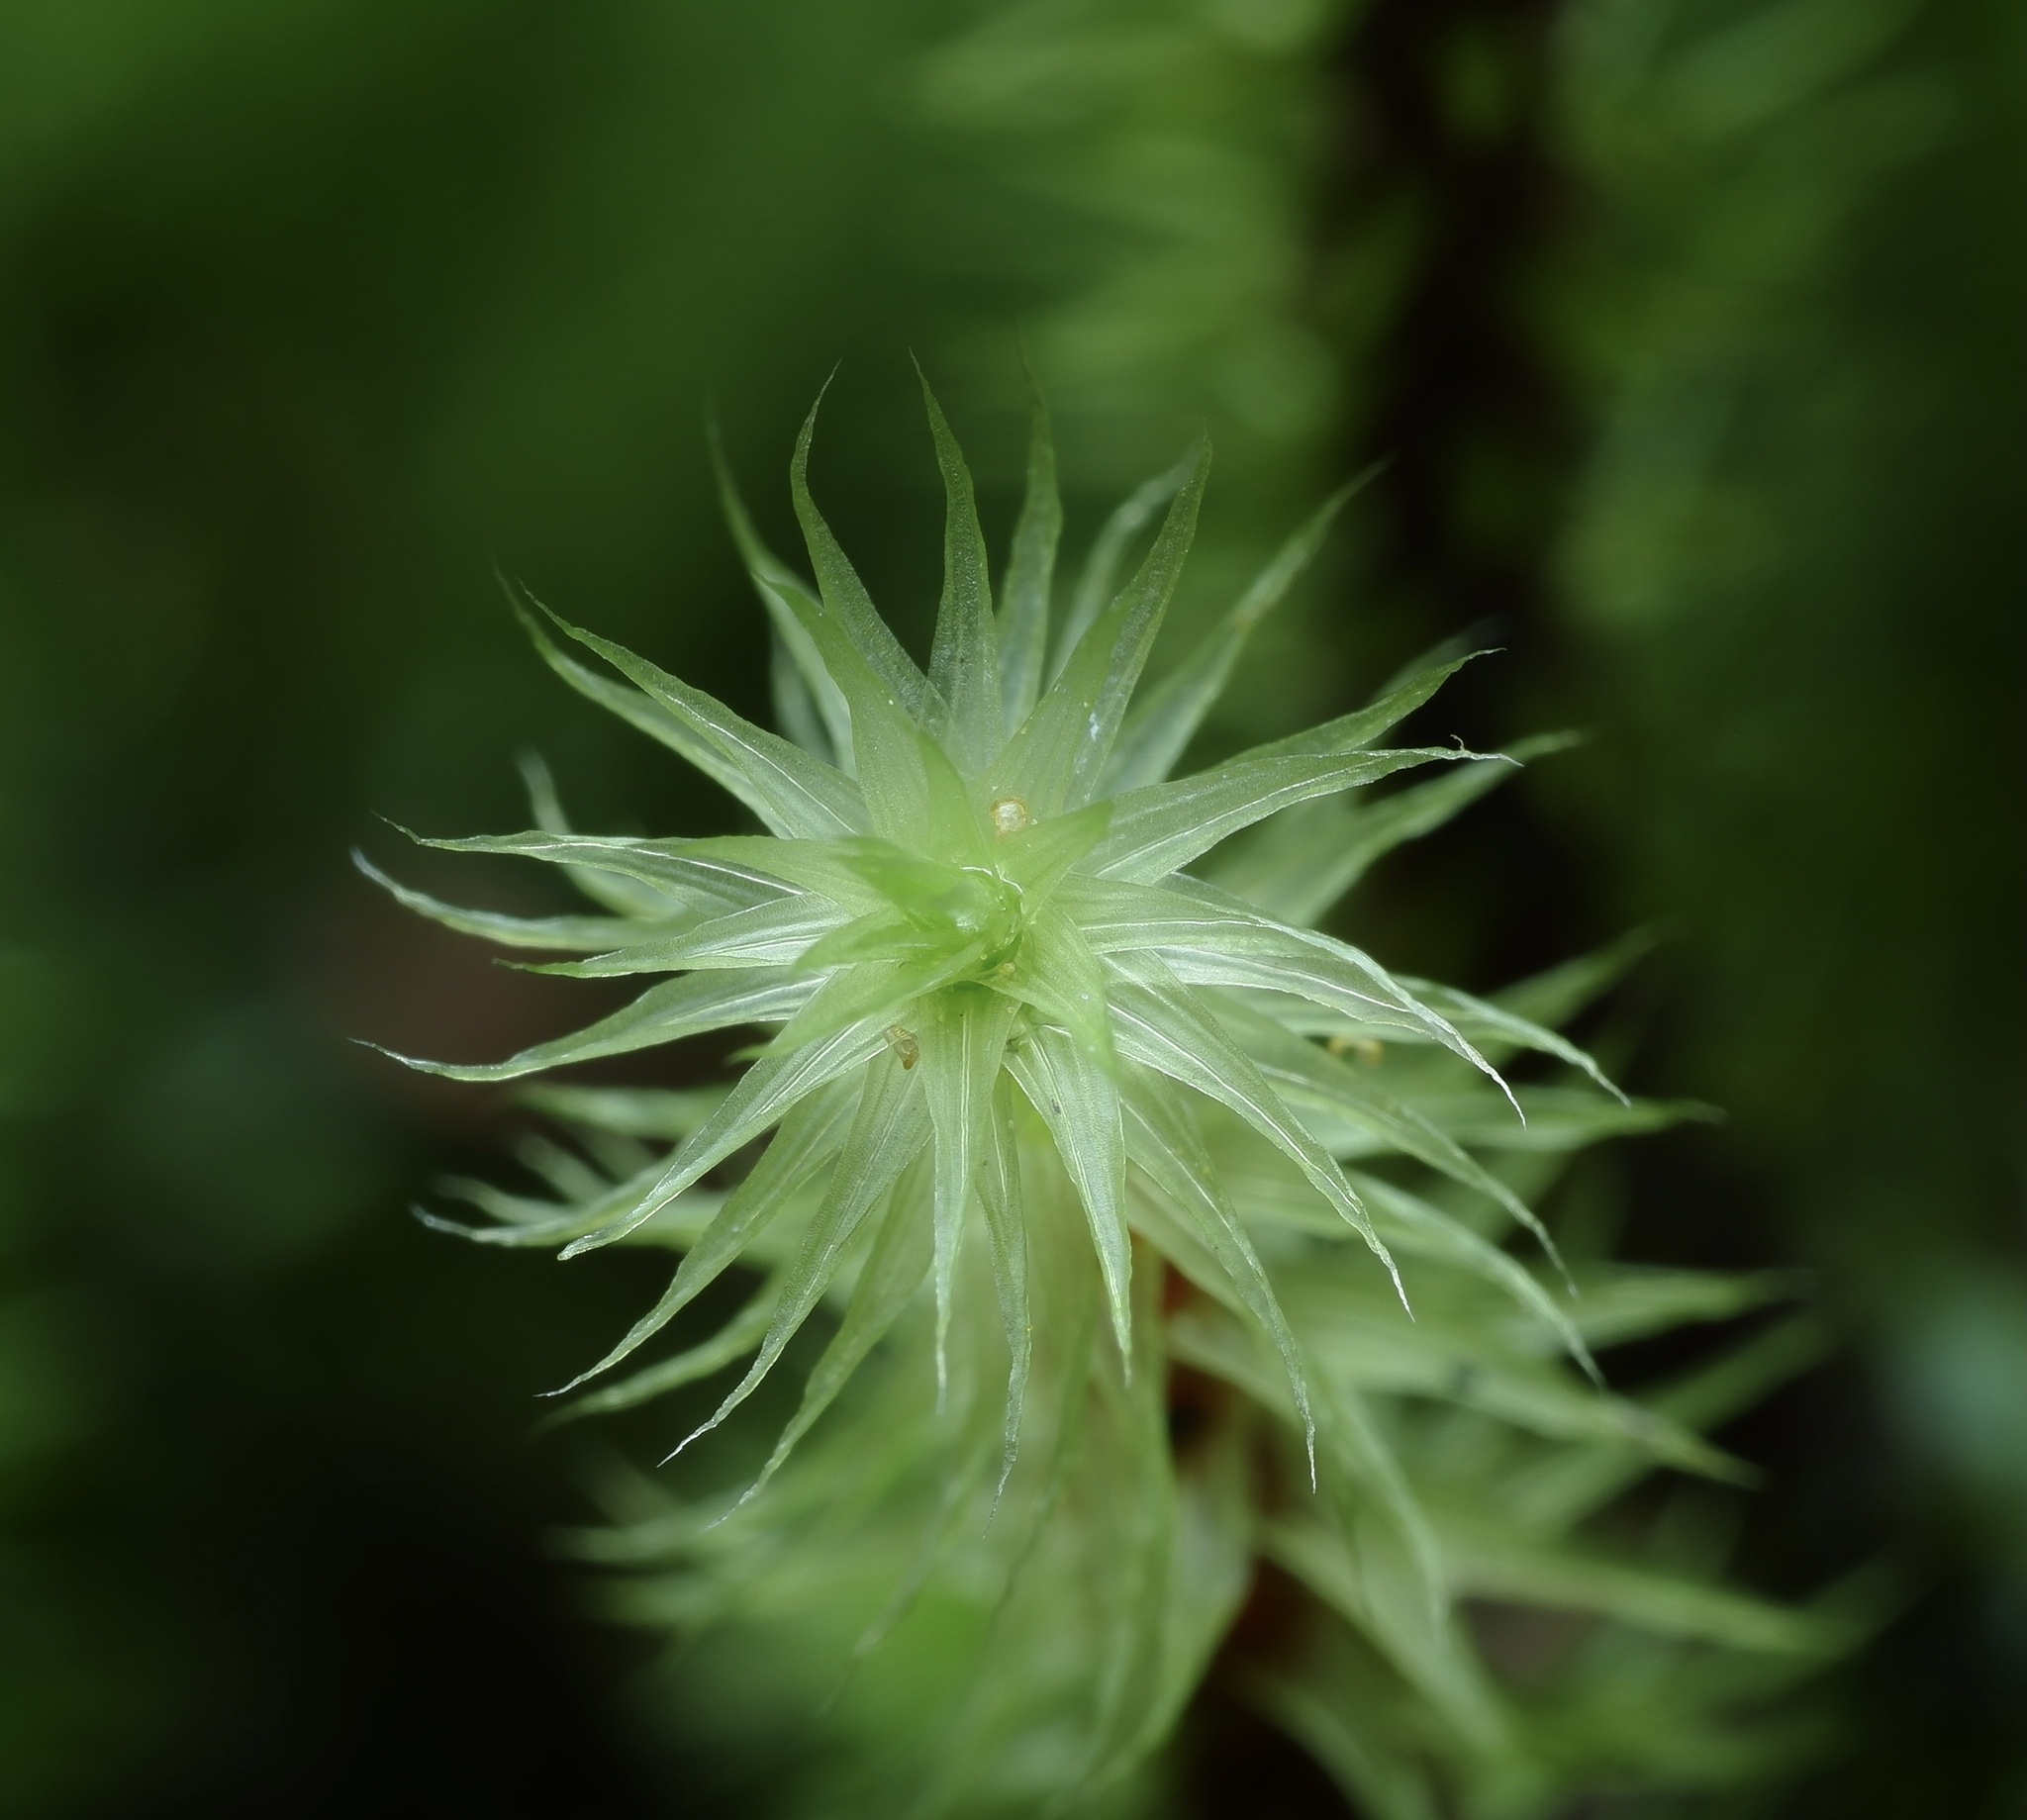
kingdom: Plantae
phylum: Bryophyta
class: Bryopsida
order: Bartramiales
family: Bartramiaceae
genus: Breutelia
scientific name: Breutelia pendula
